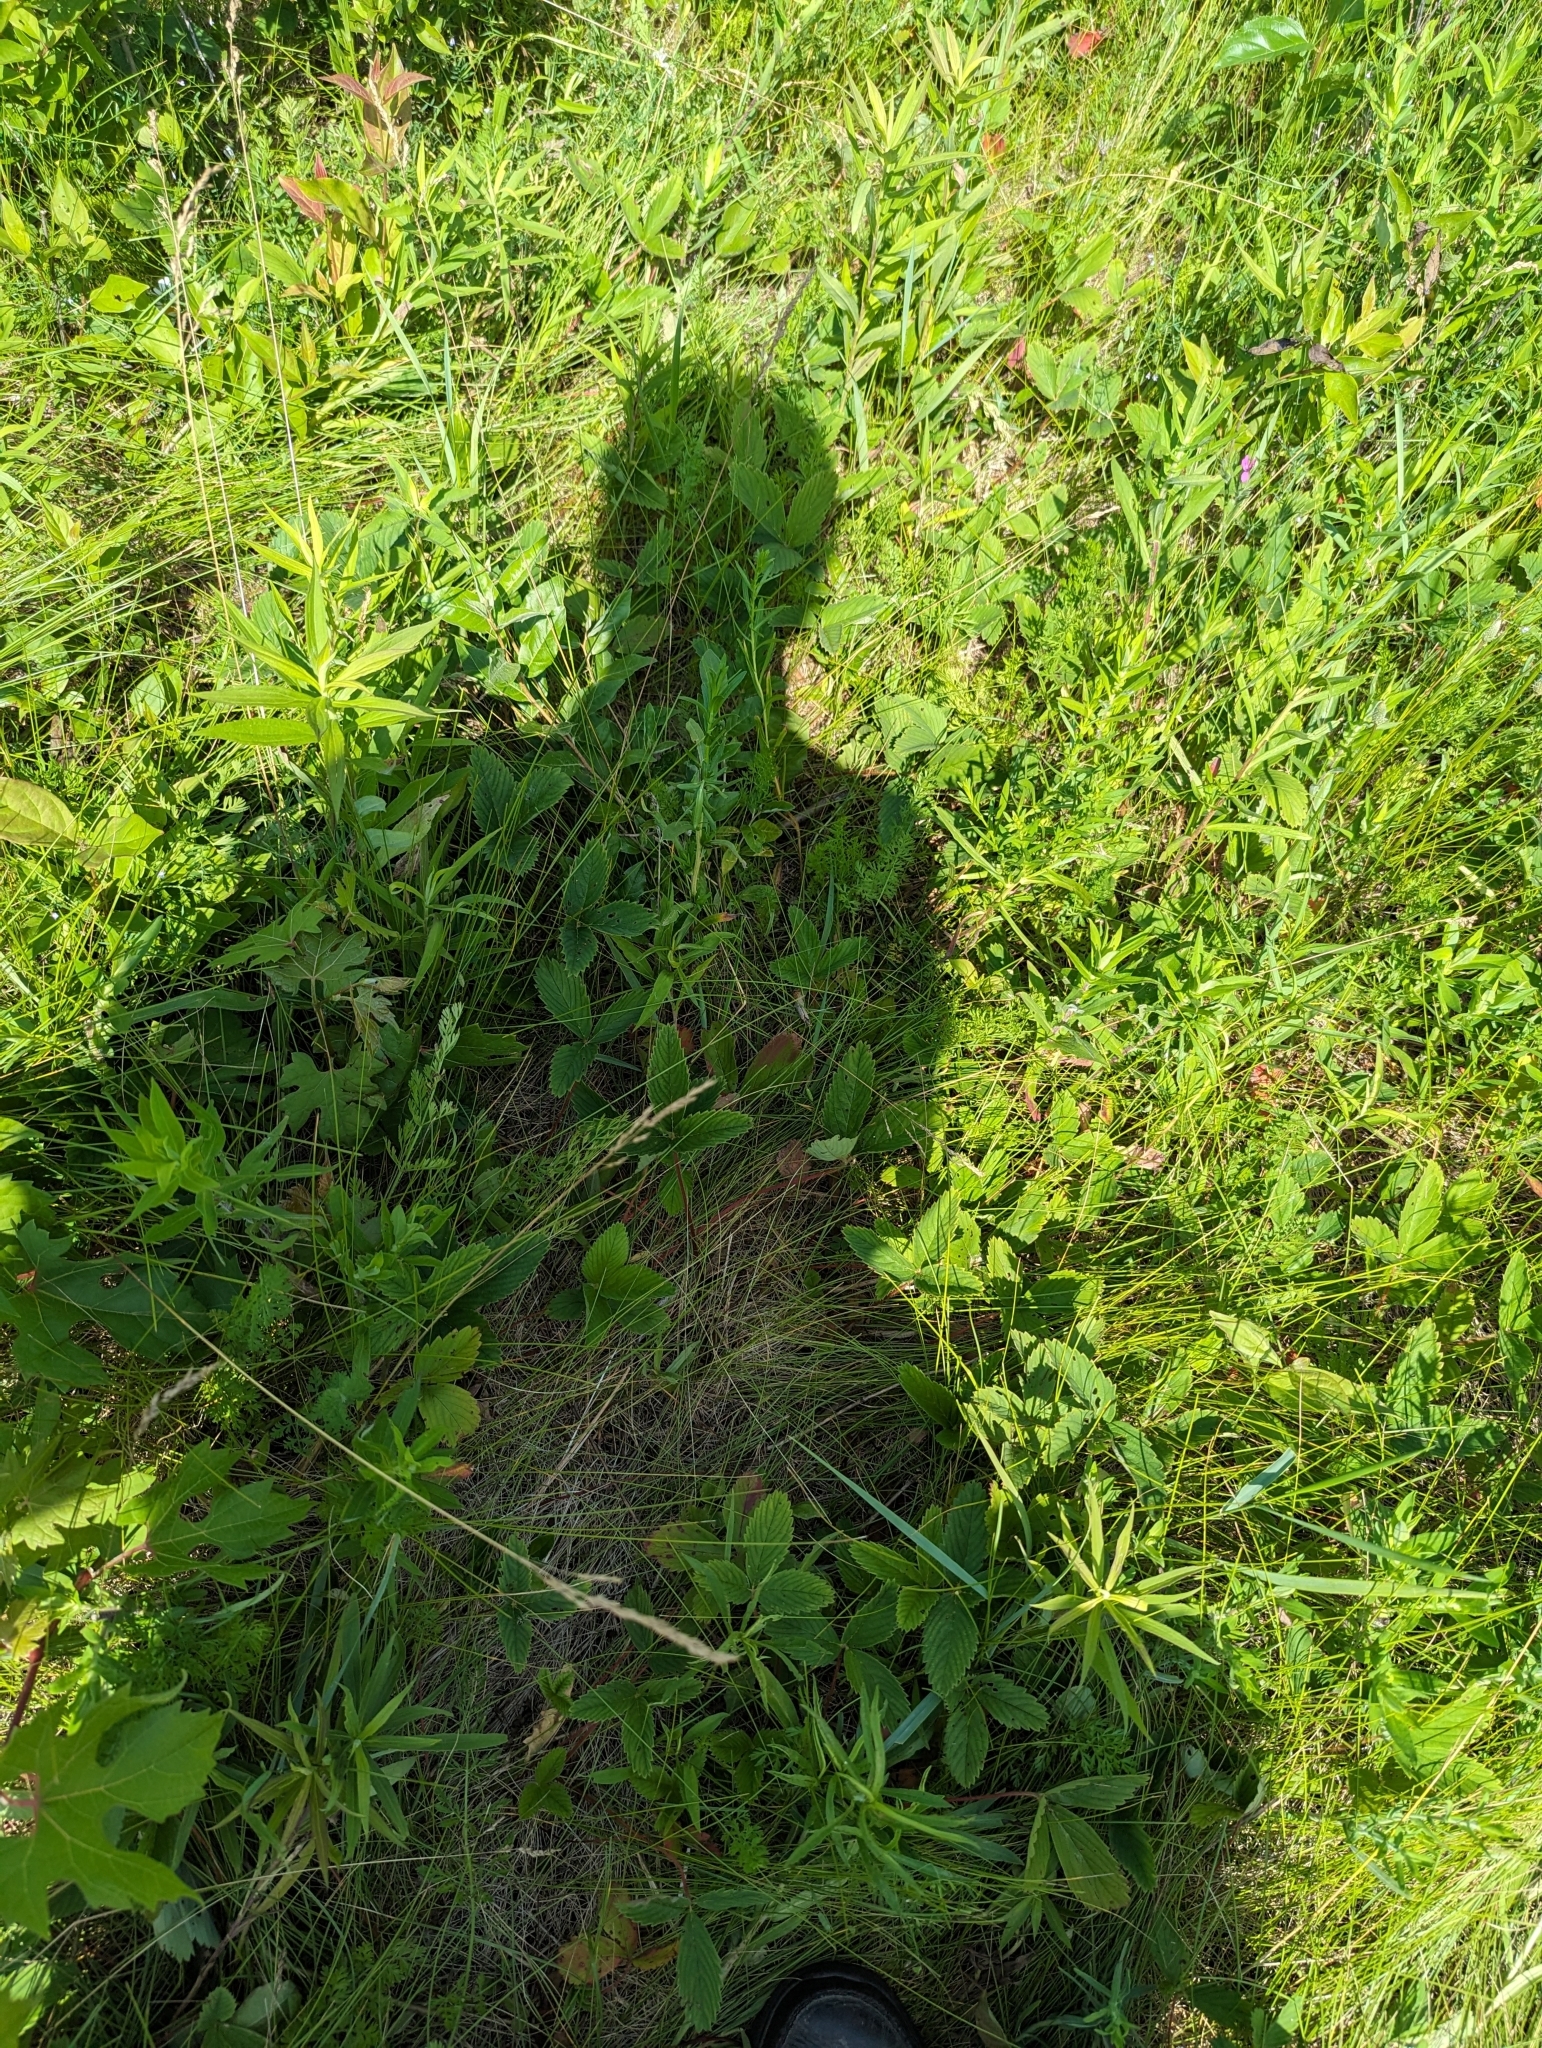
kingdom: Plantae
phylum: Tracheophyta
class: Magnoliopsida
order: Rosales
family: Rosaceae
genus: Fragaria
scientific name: Fragaria virginiana
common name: Thickleaved wild strawberry
